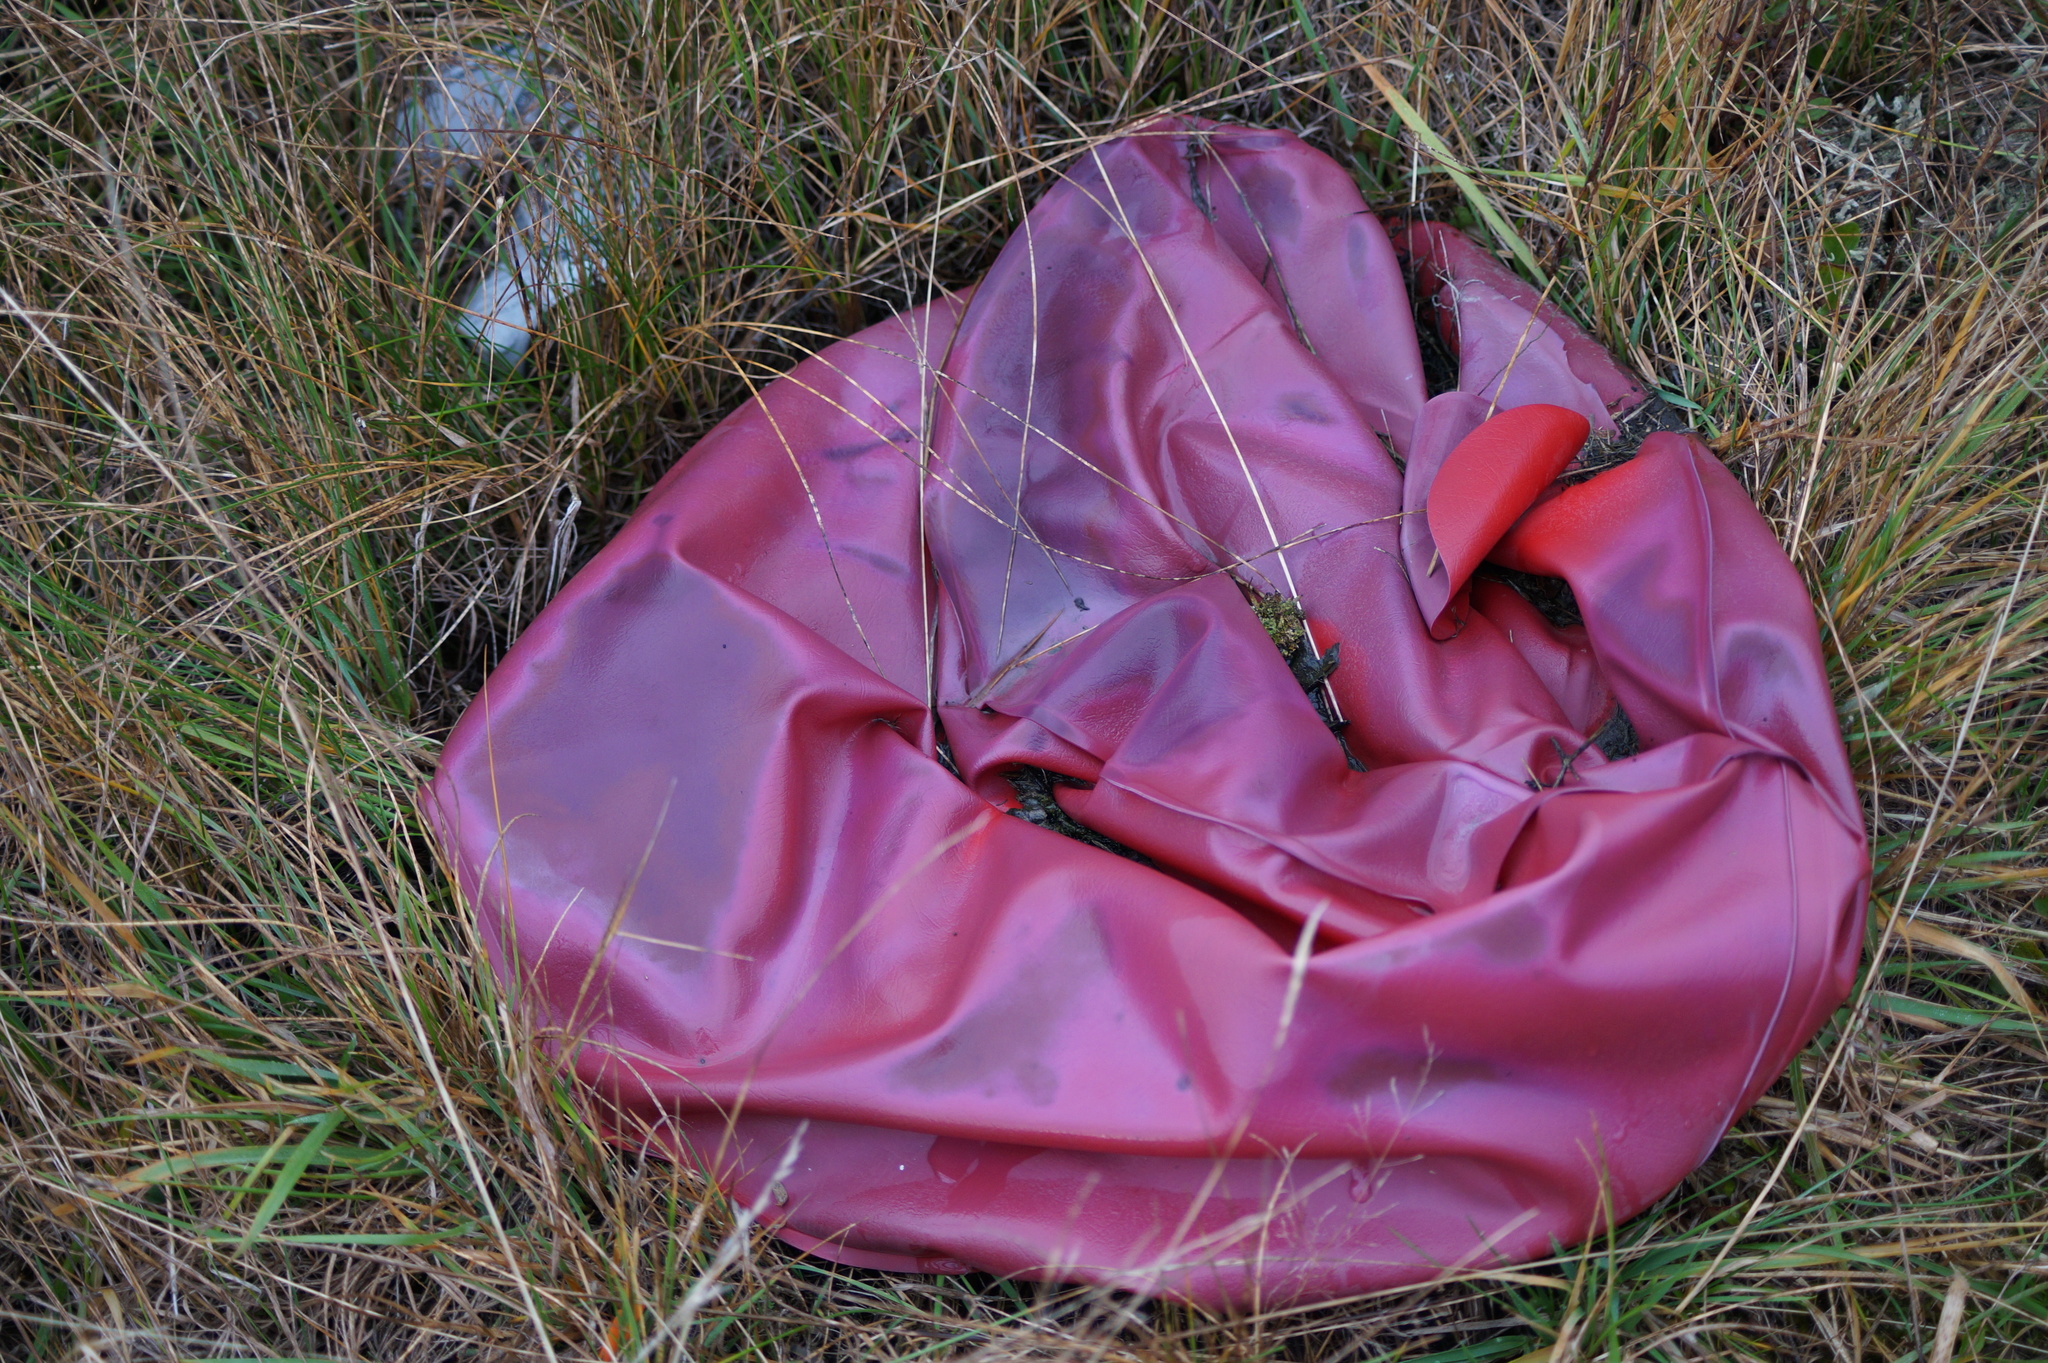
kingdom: Animalia
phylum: Chordata
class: Squamata
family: Scincidae
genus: Oligosoma
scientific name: Oligosoma maccanni
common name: Mccann’s skink
